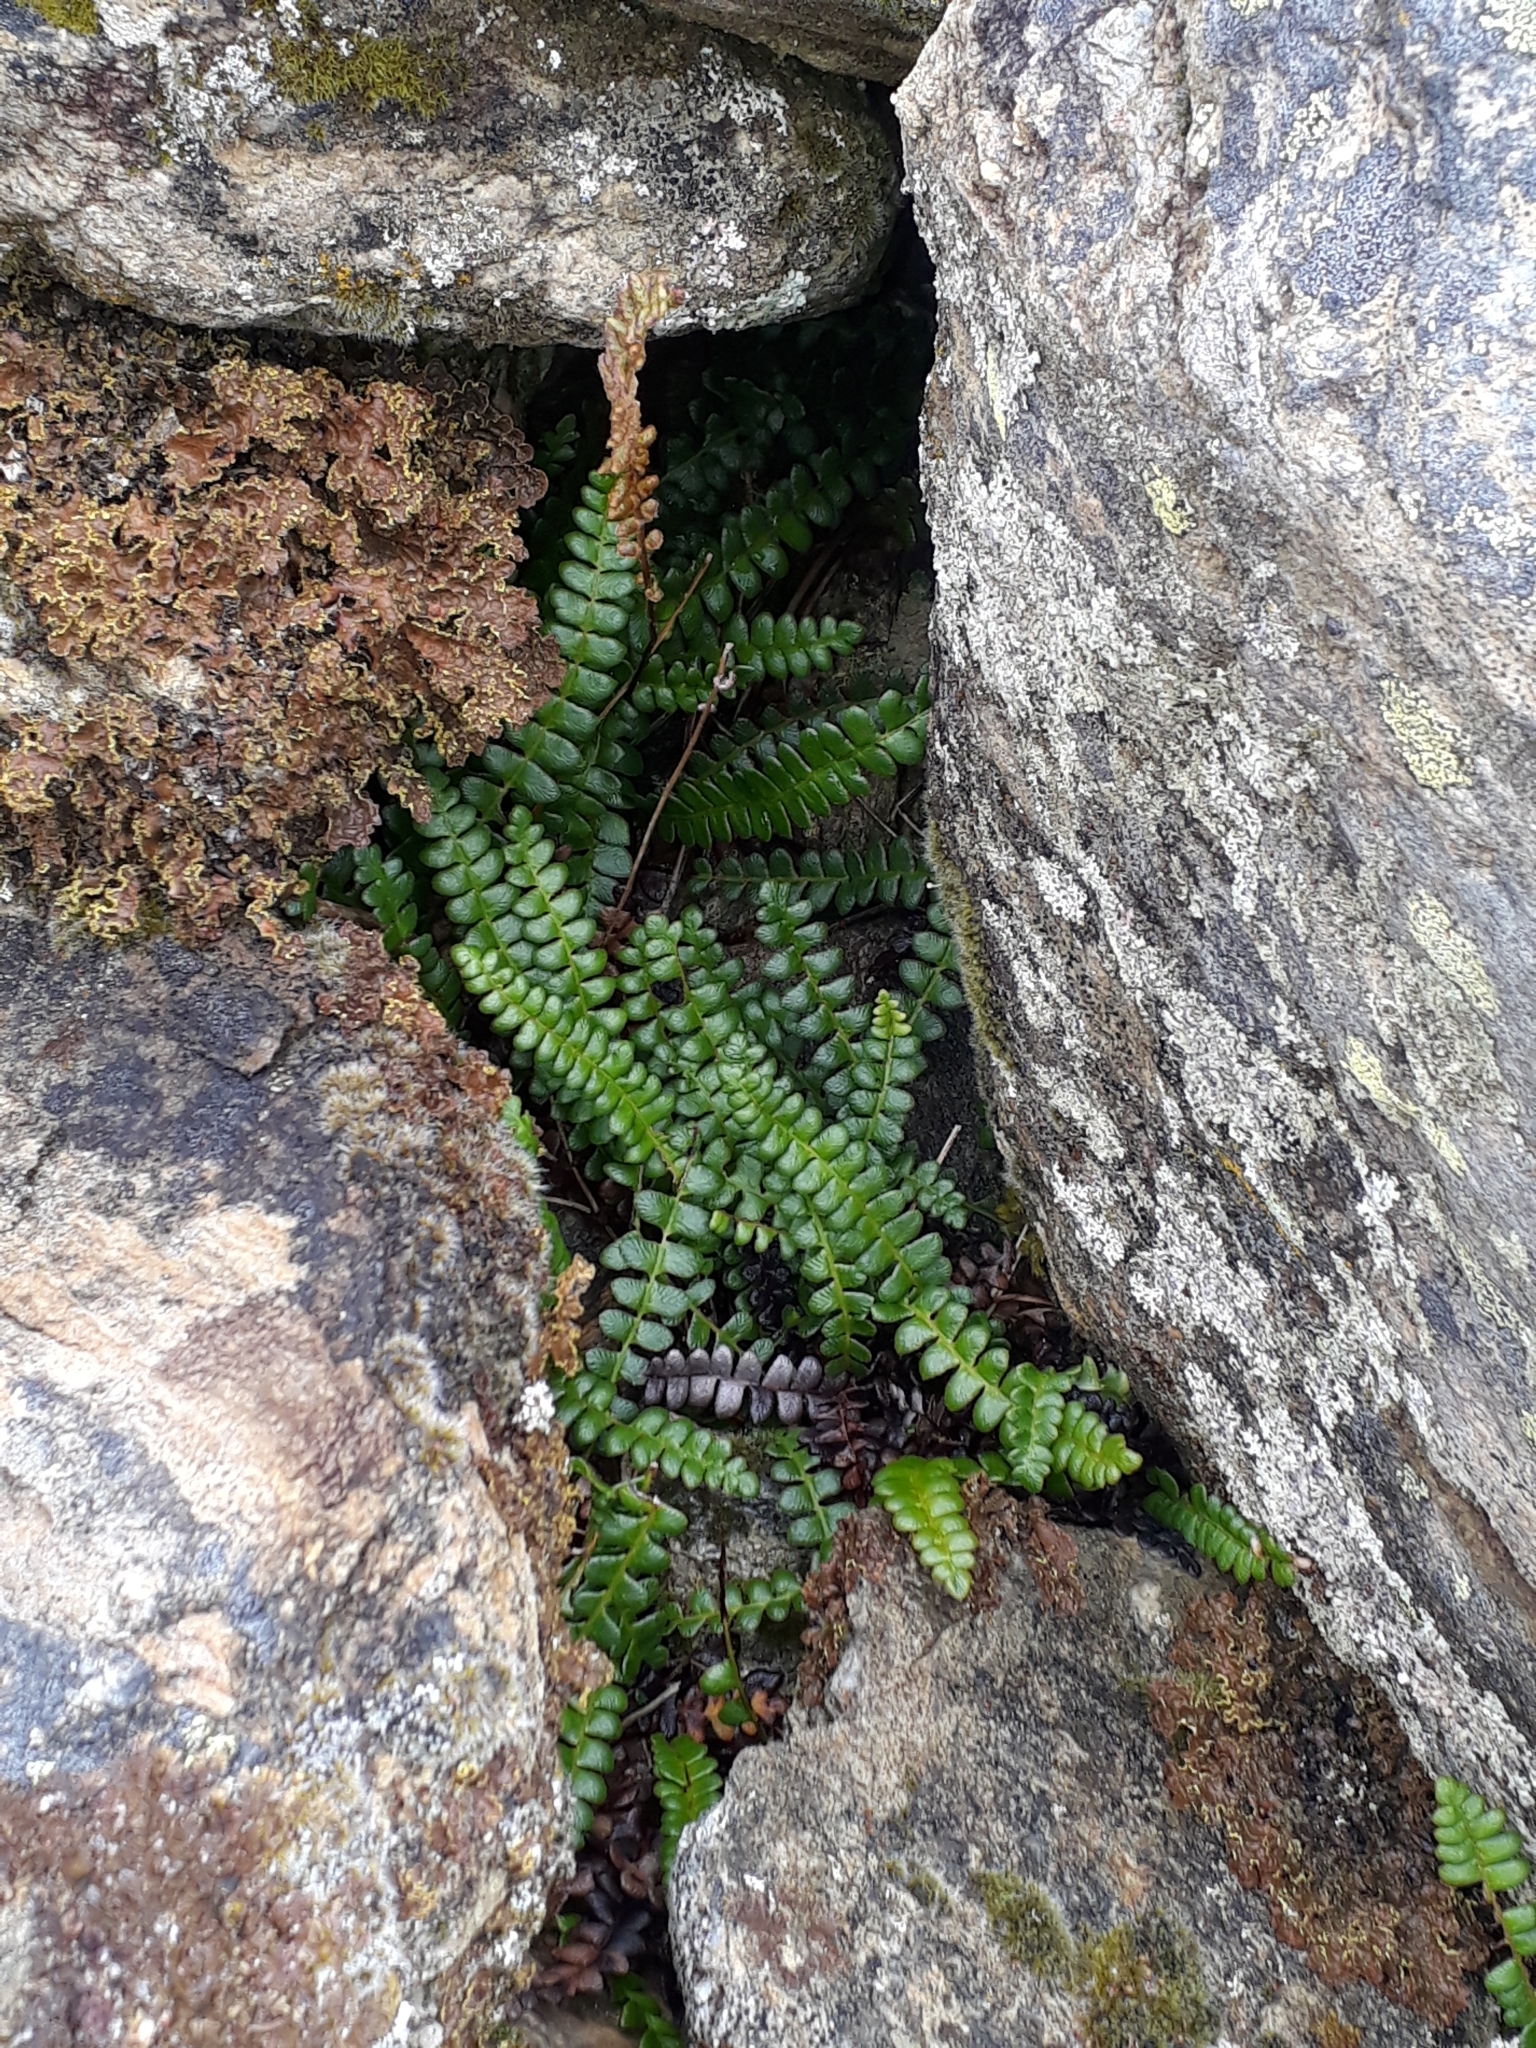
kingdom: Plantae
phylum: Tracheophyta
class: Polypodiopsida
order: Polypodiales
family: Blechnaceae
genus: Austroblechnum
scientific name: Austroblechnum penna-marina
